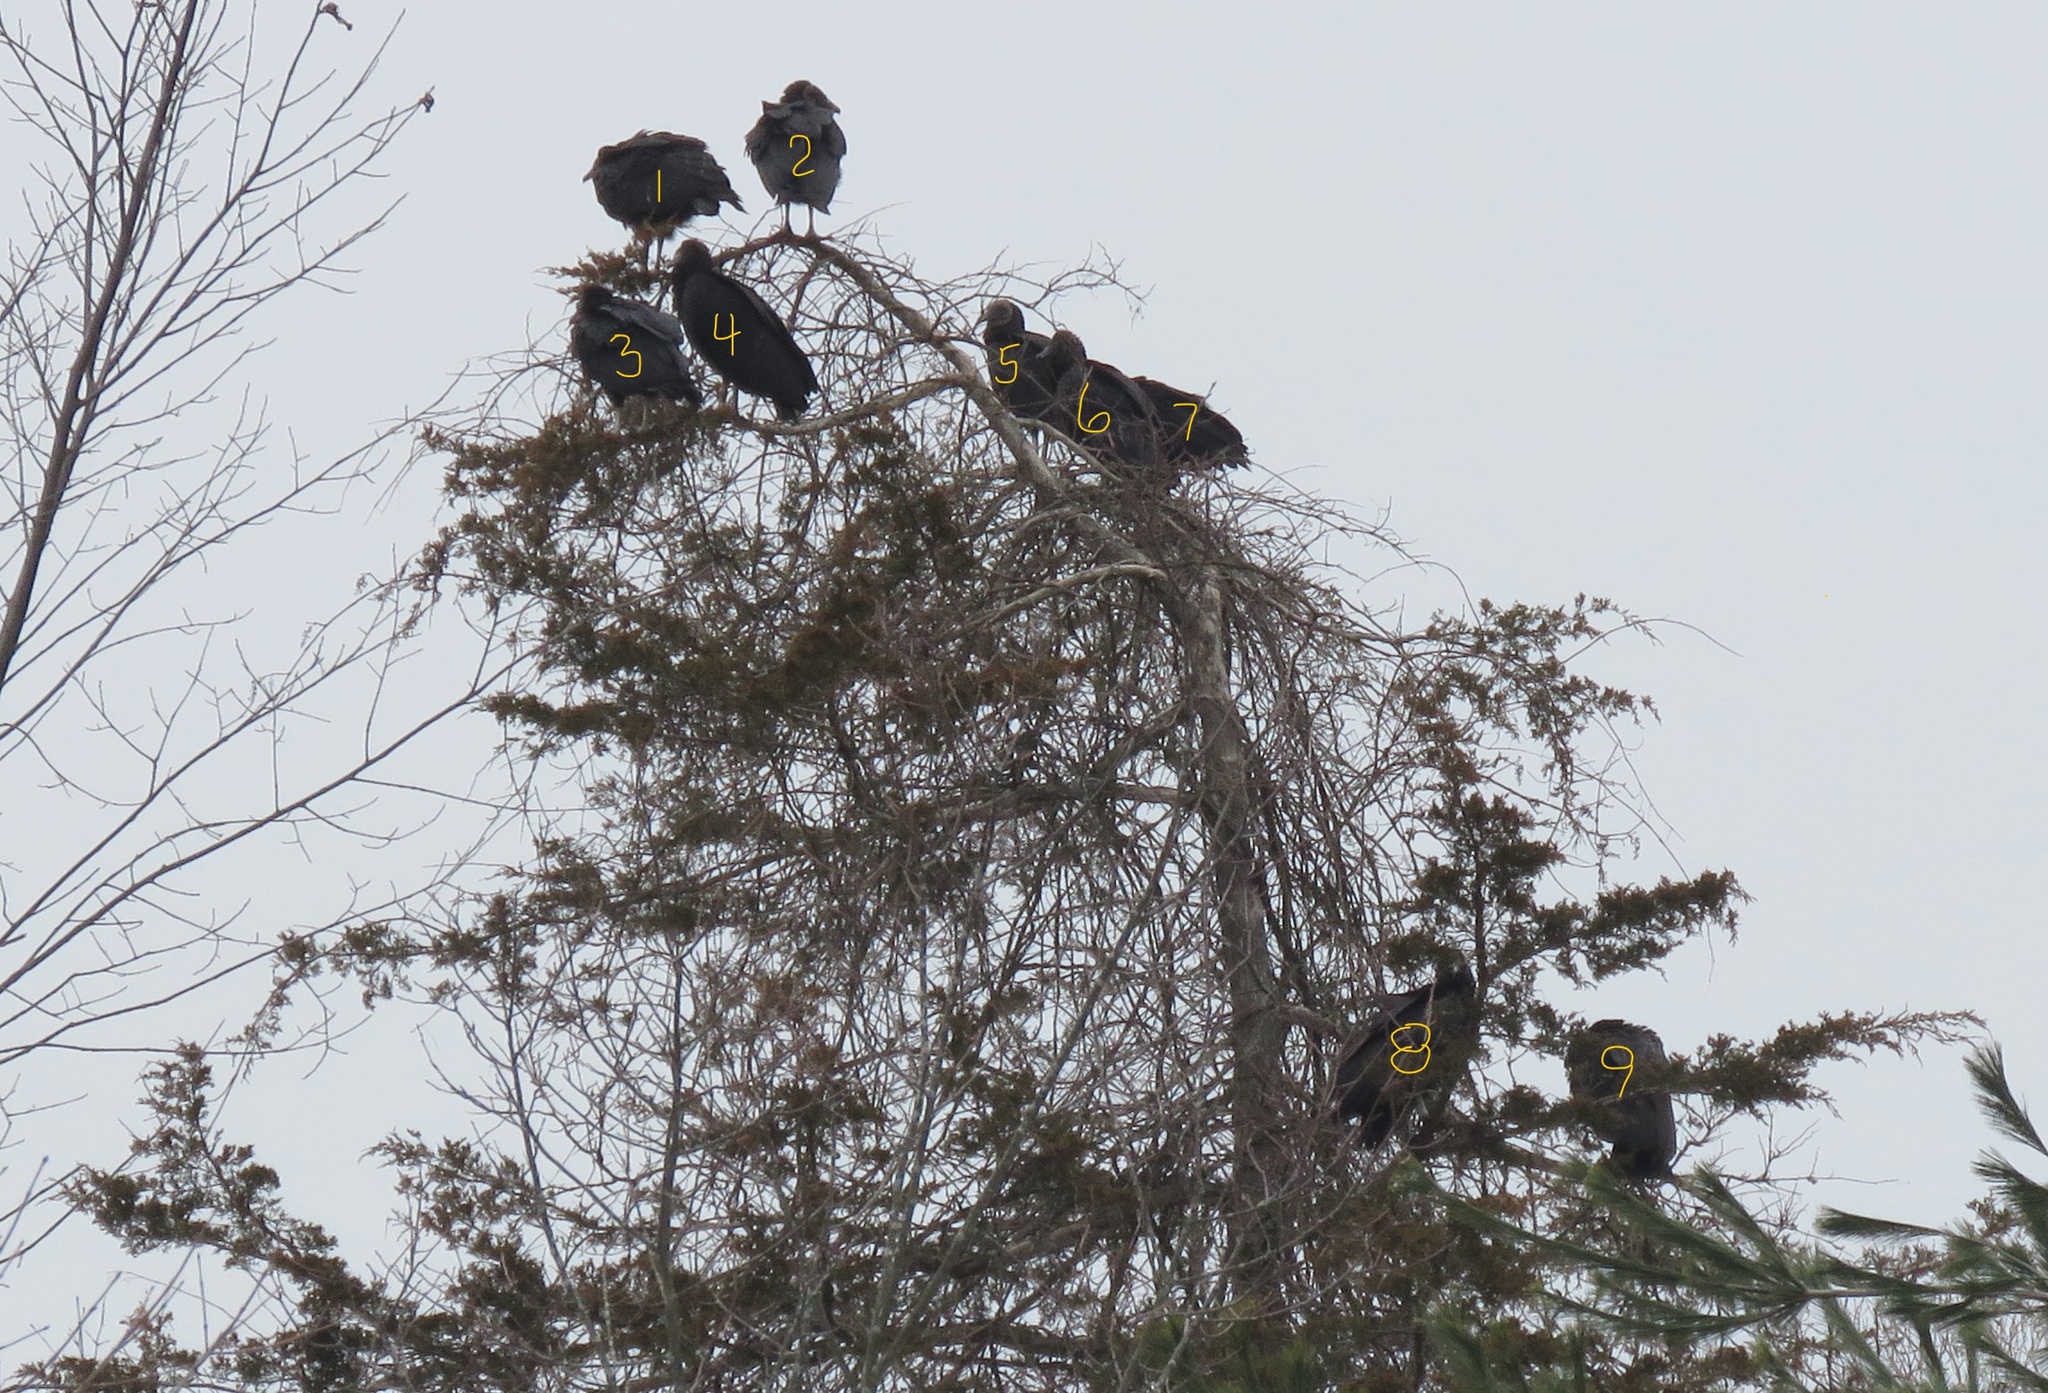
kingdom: Animalia
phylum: Chordata
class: Aves
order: Accipitriformes
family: Cathartidae
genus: Coragyps
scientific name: Coragyps atratus
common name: Black vulture
